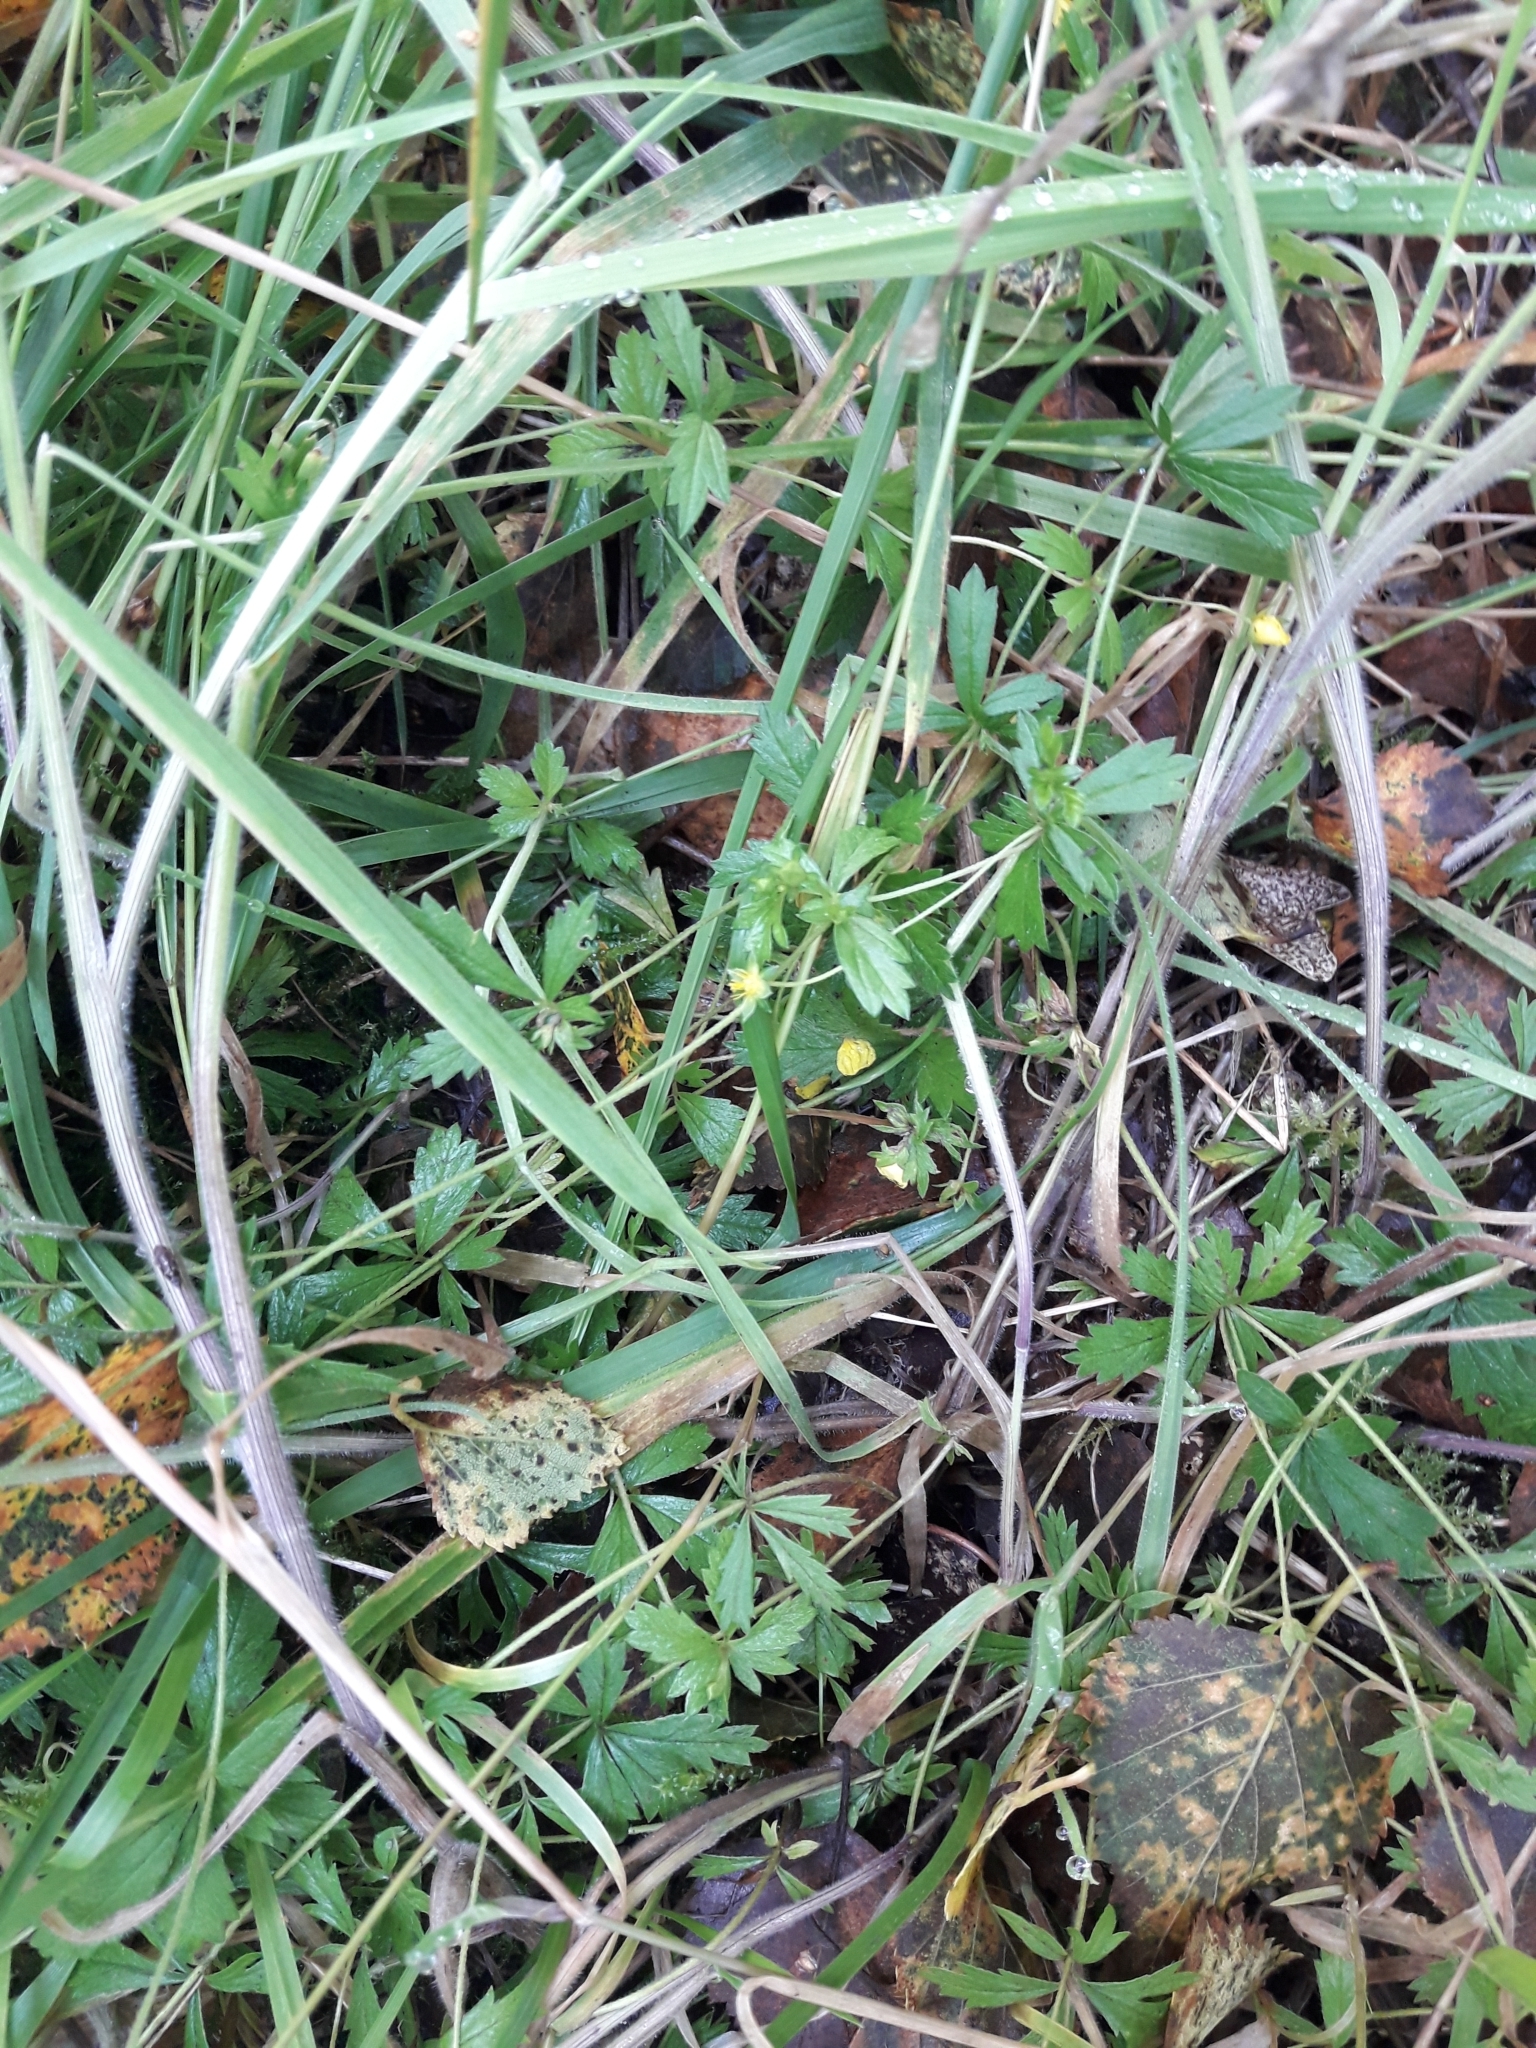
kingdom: Plantae
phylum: Tracheophyta
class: Magnoliopsida
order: Rosales
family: Rosaceae
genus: Potentilla
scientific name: Potentilla erecta
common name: Tormentil
